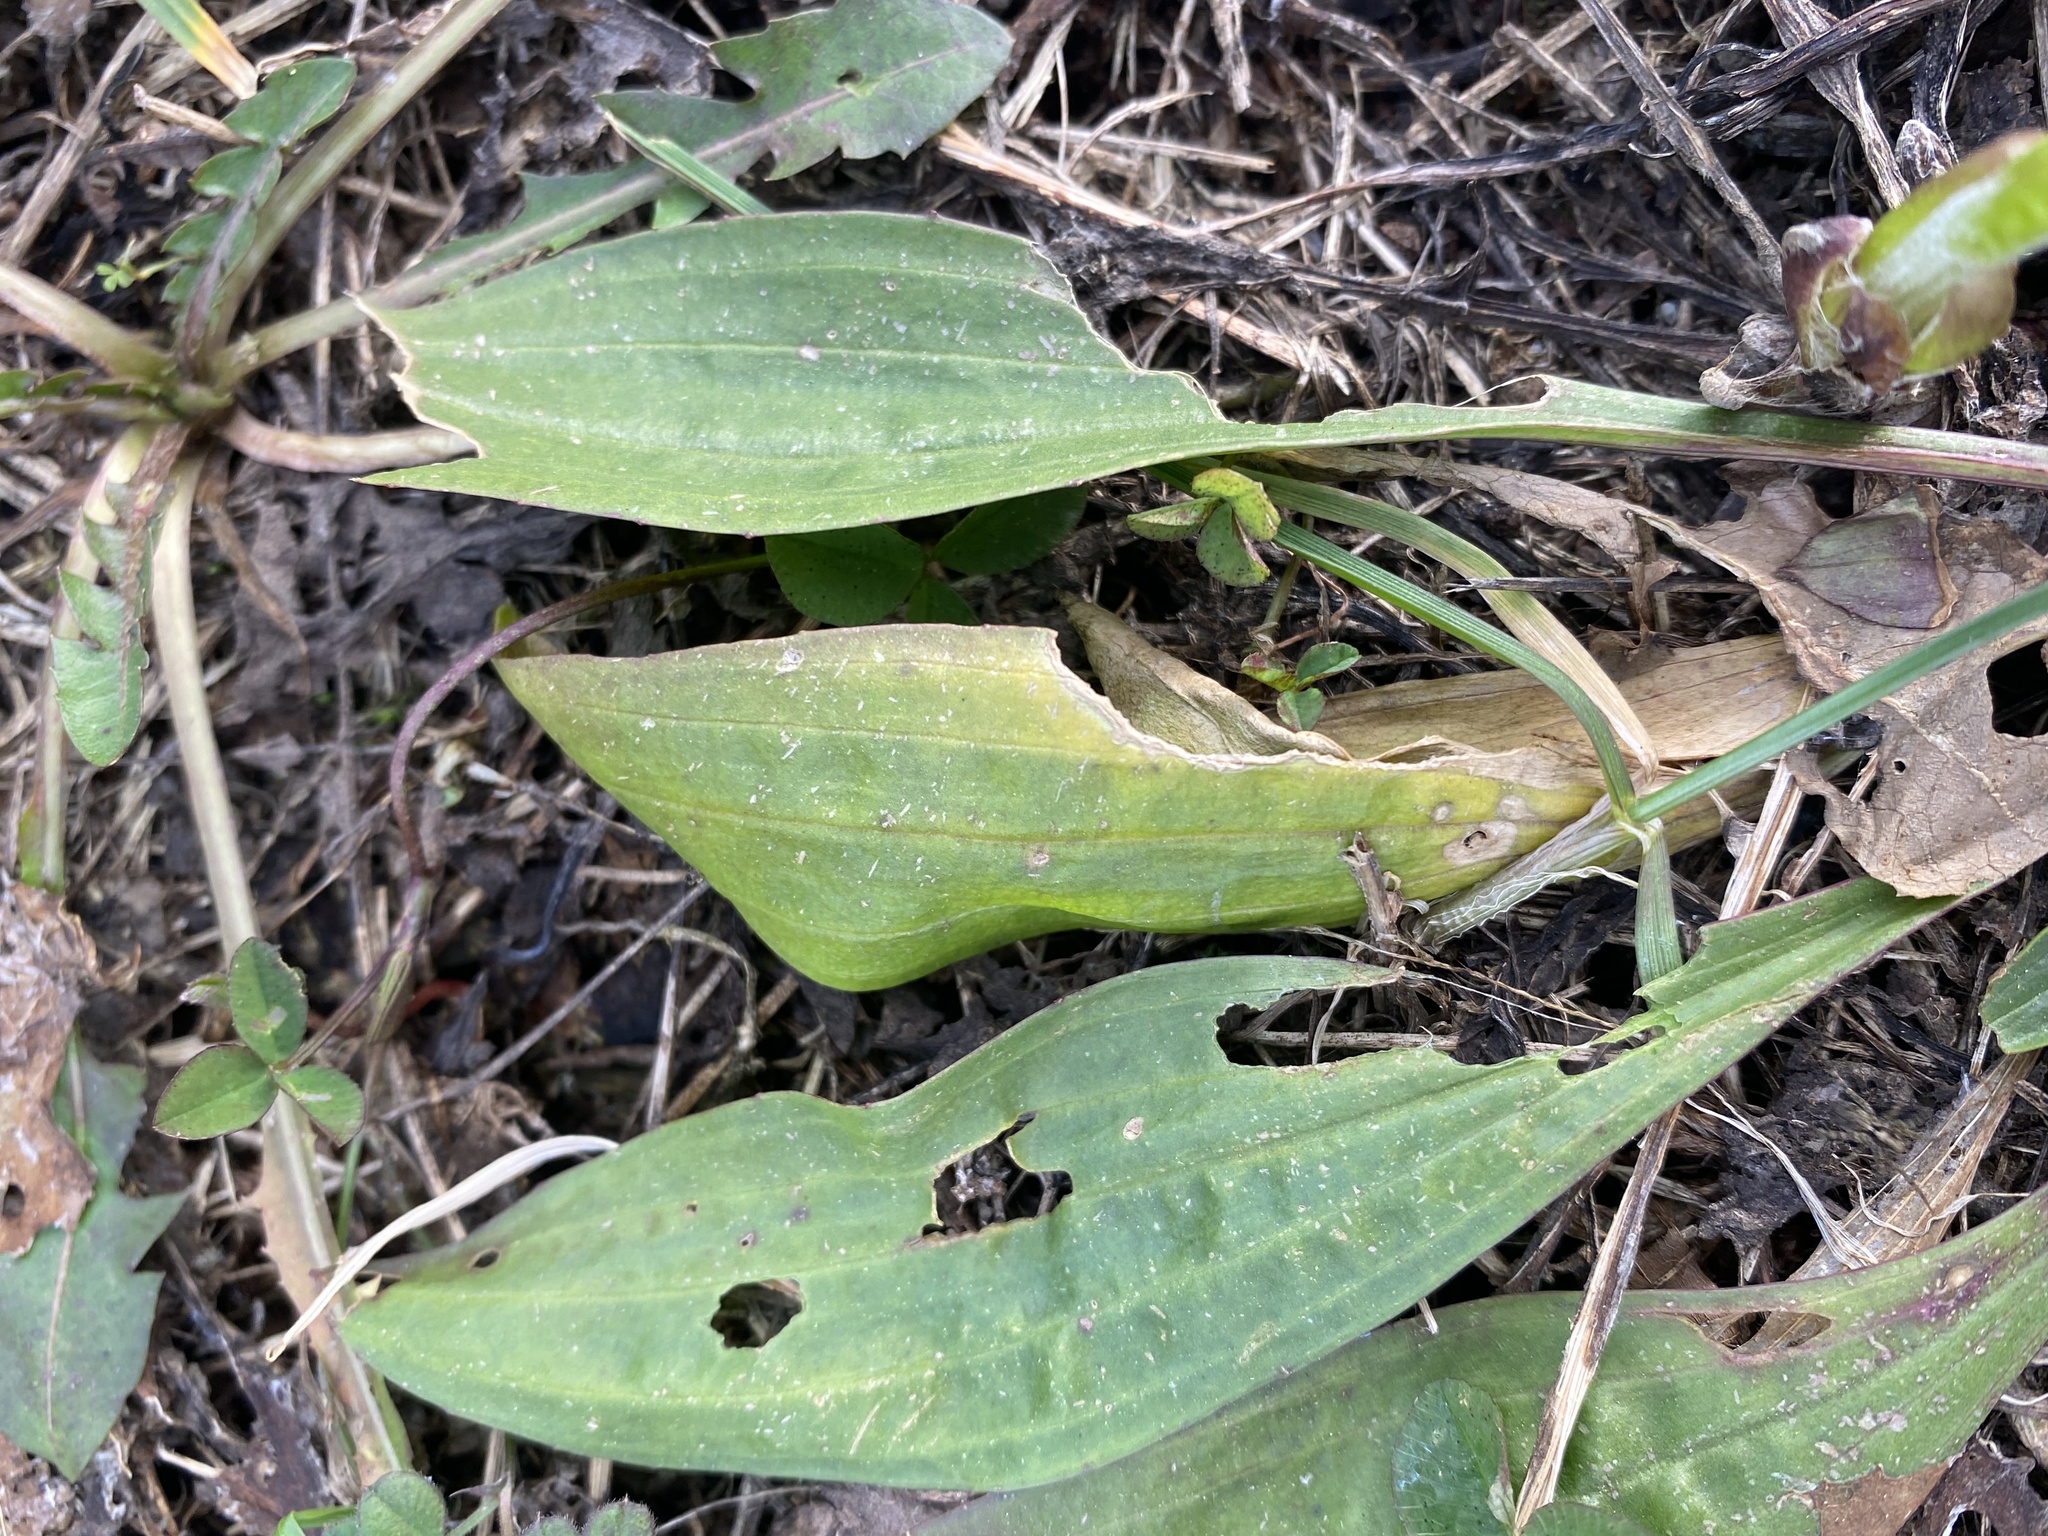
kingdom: Plantae
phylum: Tracheophyta
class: Magnoliopsida
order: Lamiales
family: Plantaginaceae
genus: Plantago
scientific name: Plantago lanceolata
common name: Ribwort plantain
